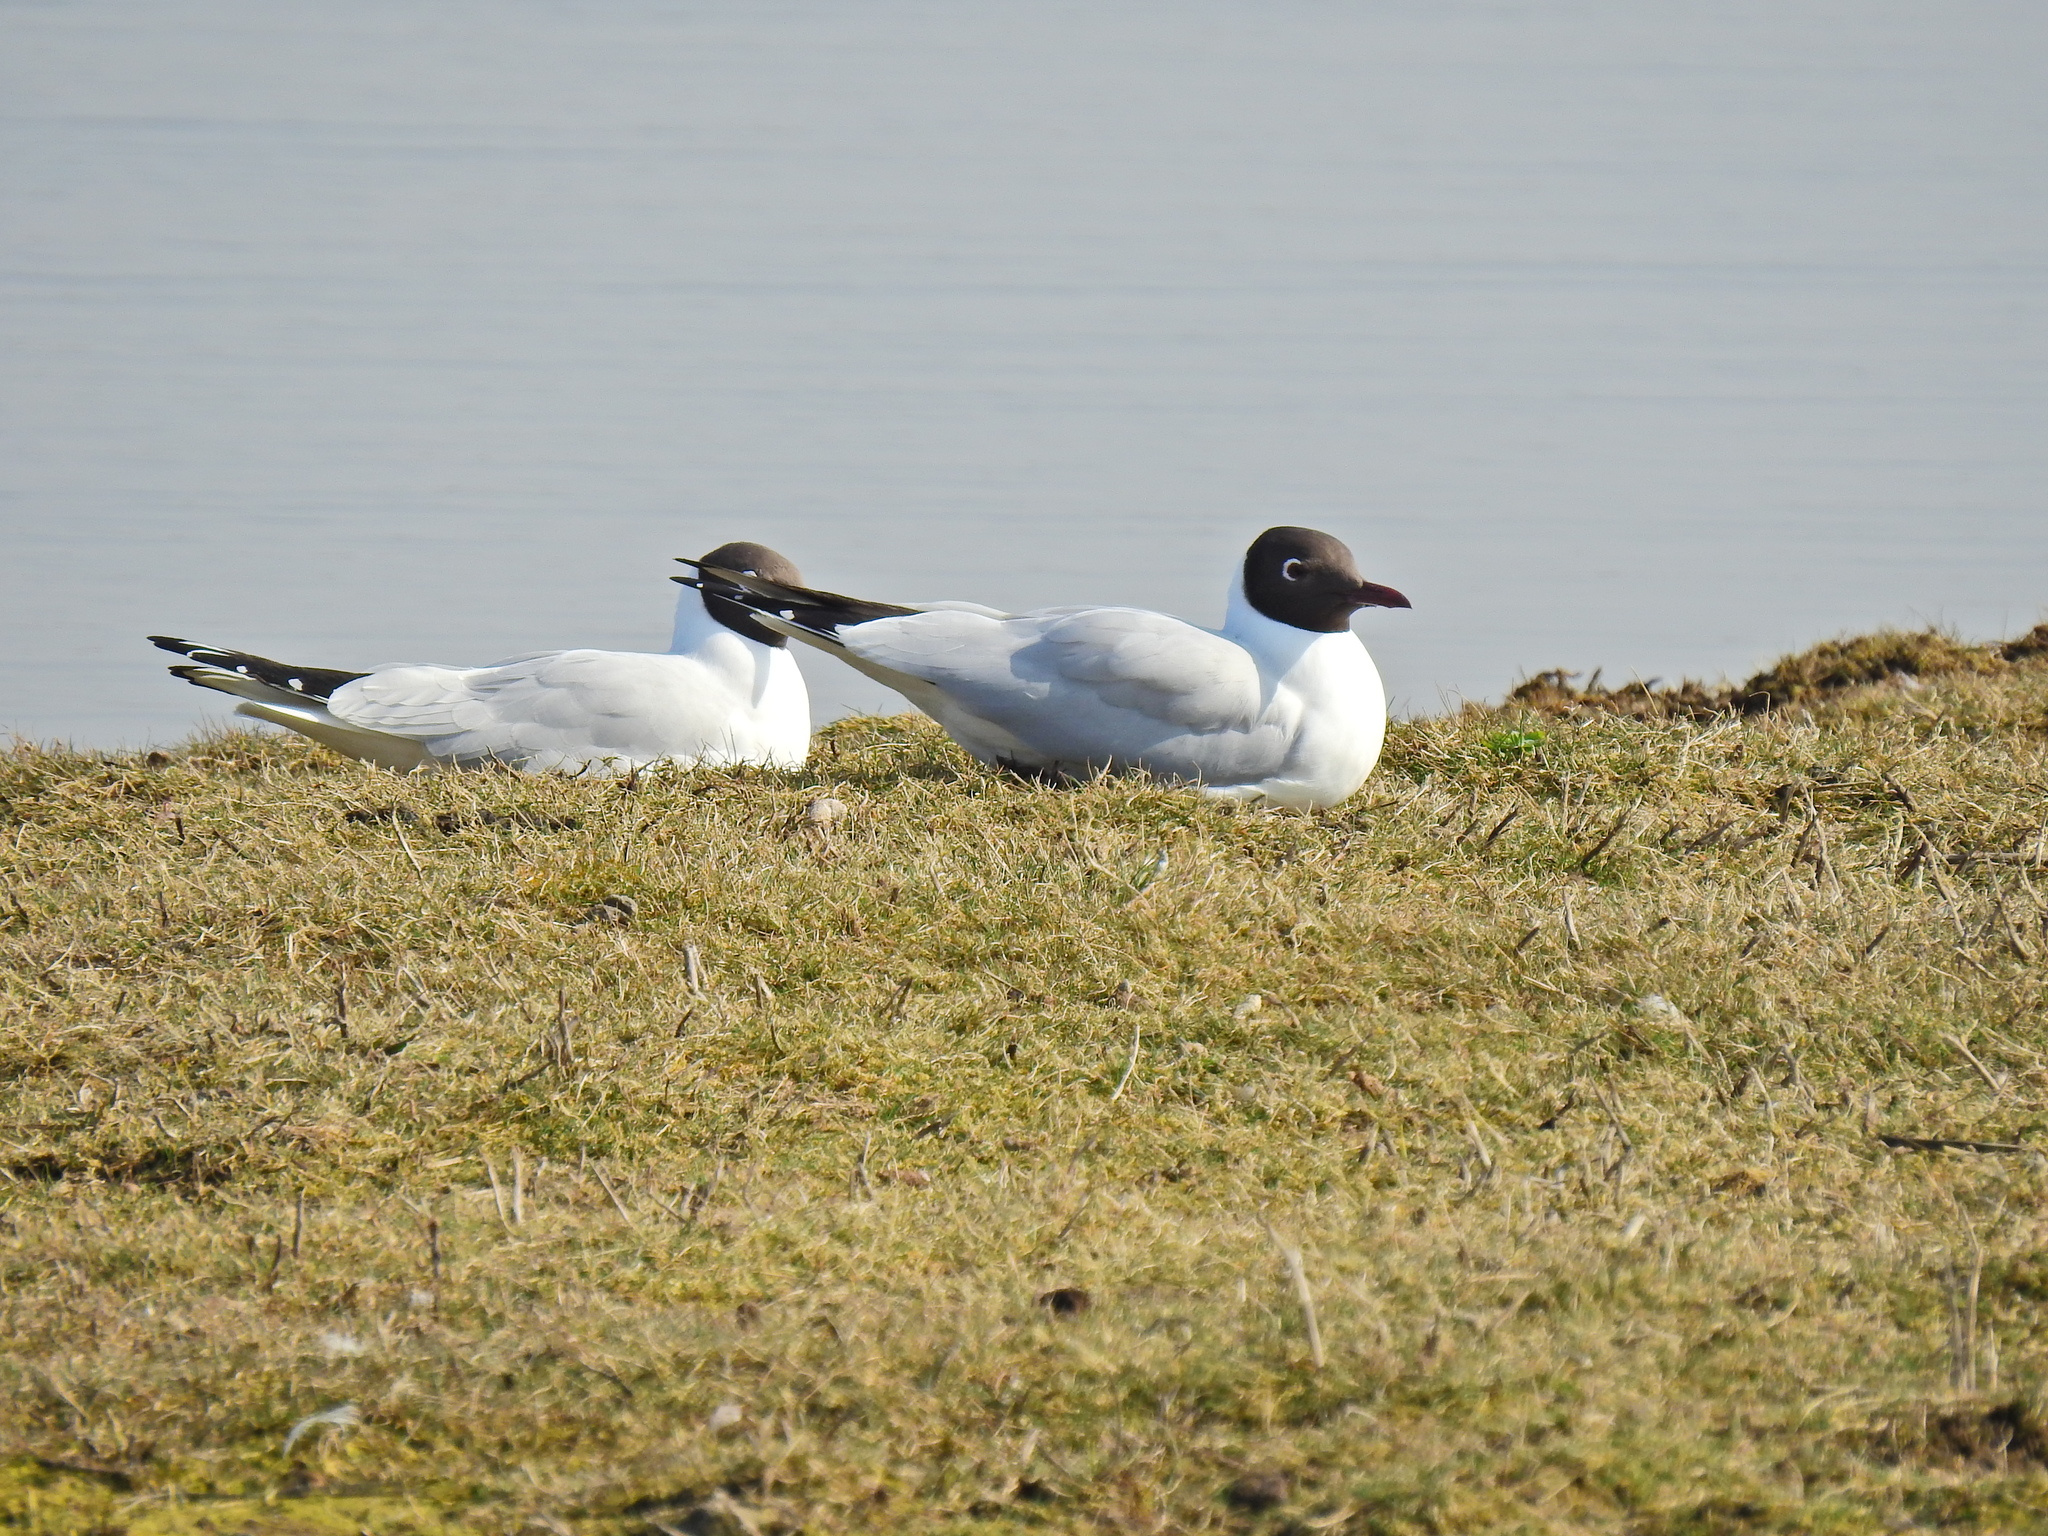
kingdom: Animalia
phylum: Chordata
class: Aves
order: Charadriiformes
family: Laridae
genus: Chroicocephalus
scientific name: Chroicocephalus ridibundus
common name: Black-headed gull
